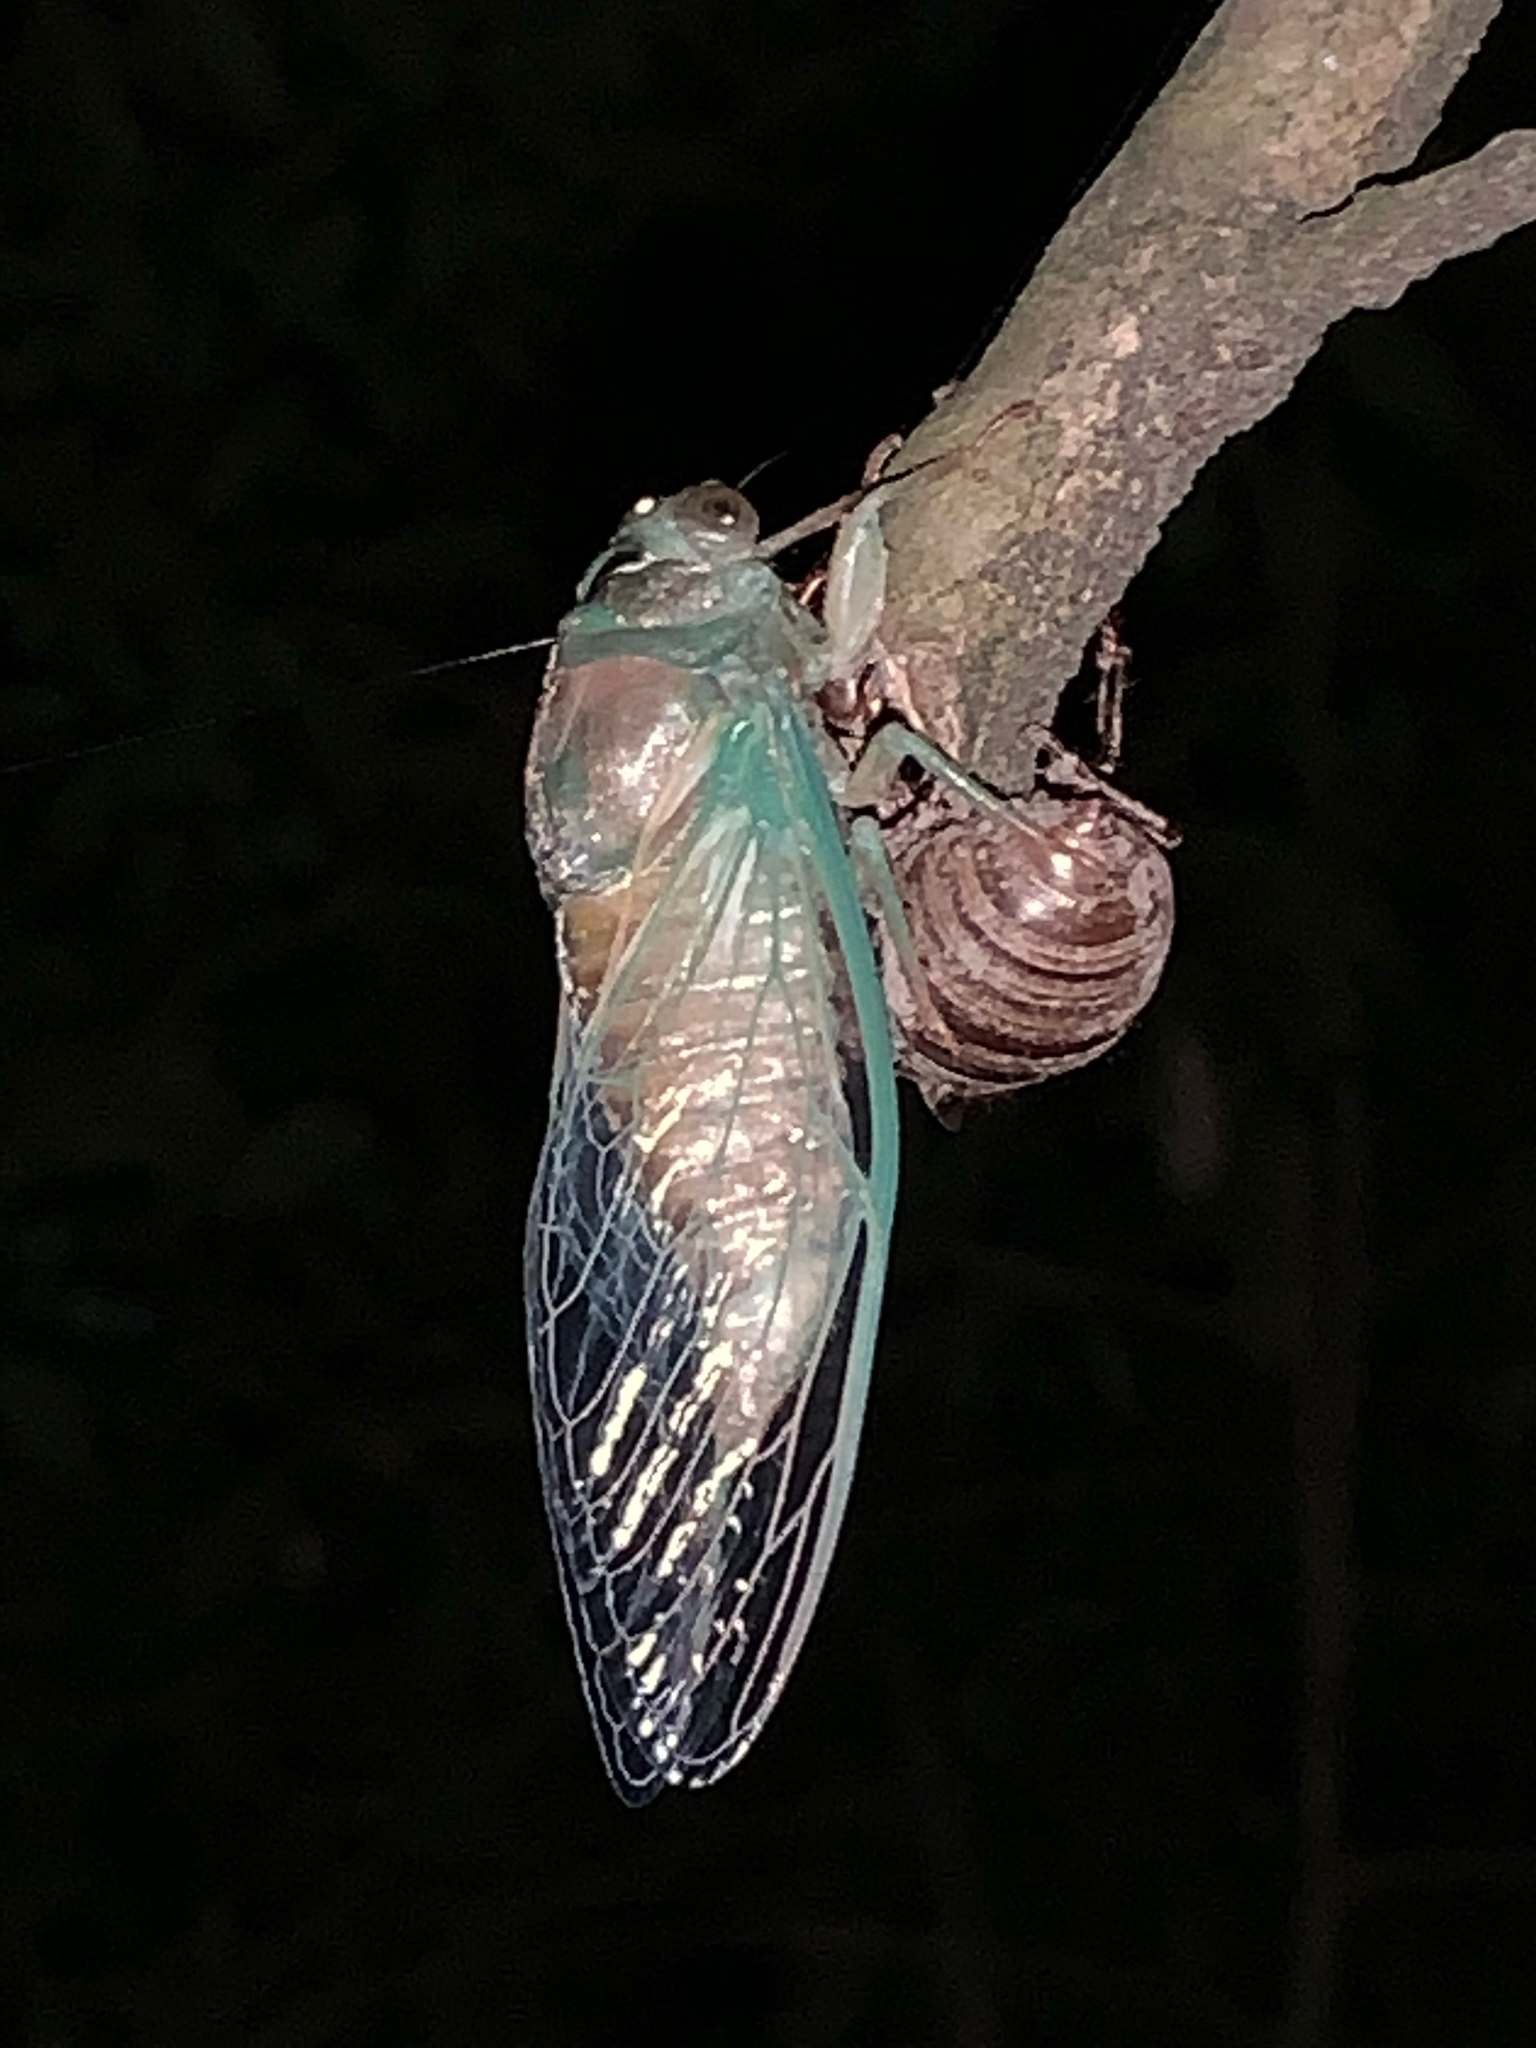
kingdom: Animalia
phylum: Arthropoda
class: Insecta
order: Hemiptera
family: Cicadidae
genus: Neotibicen
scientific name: Neotibicen
